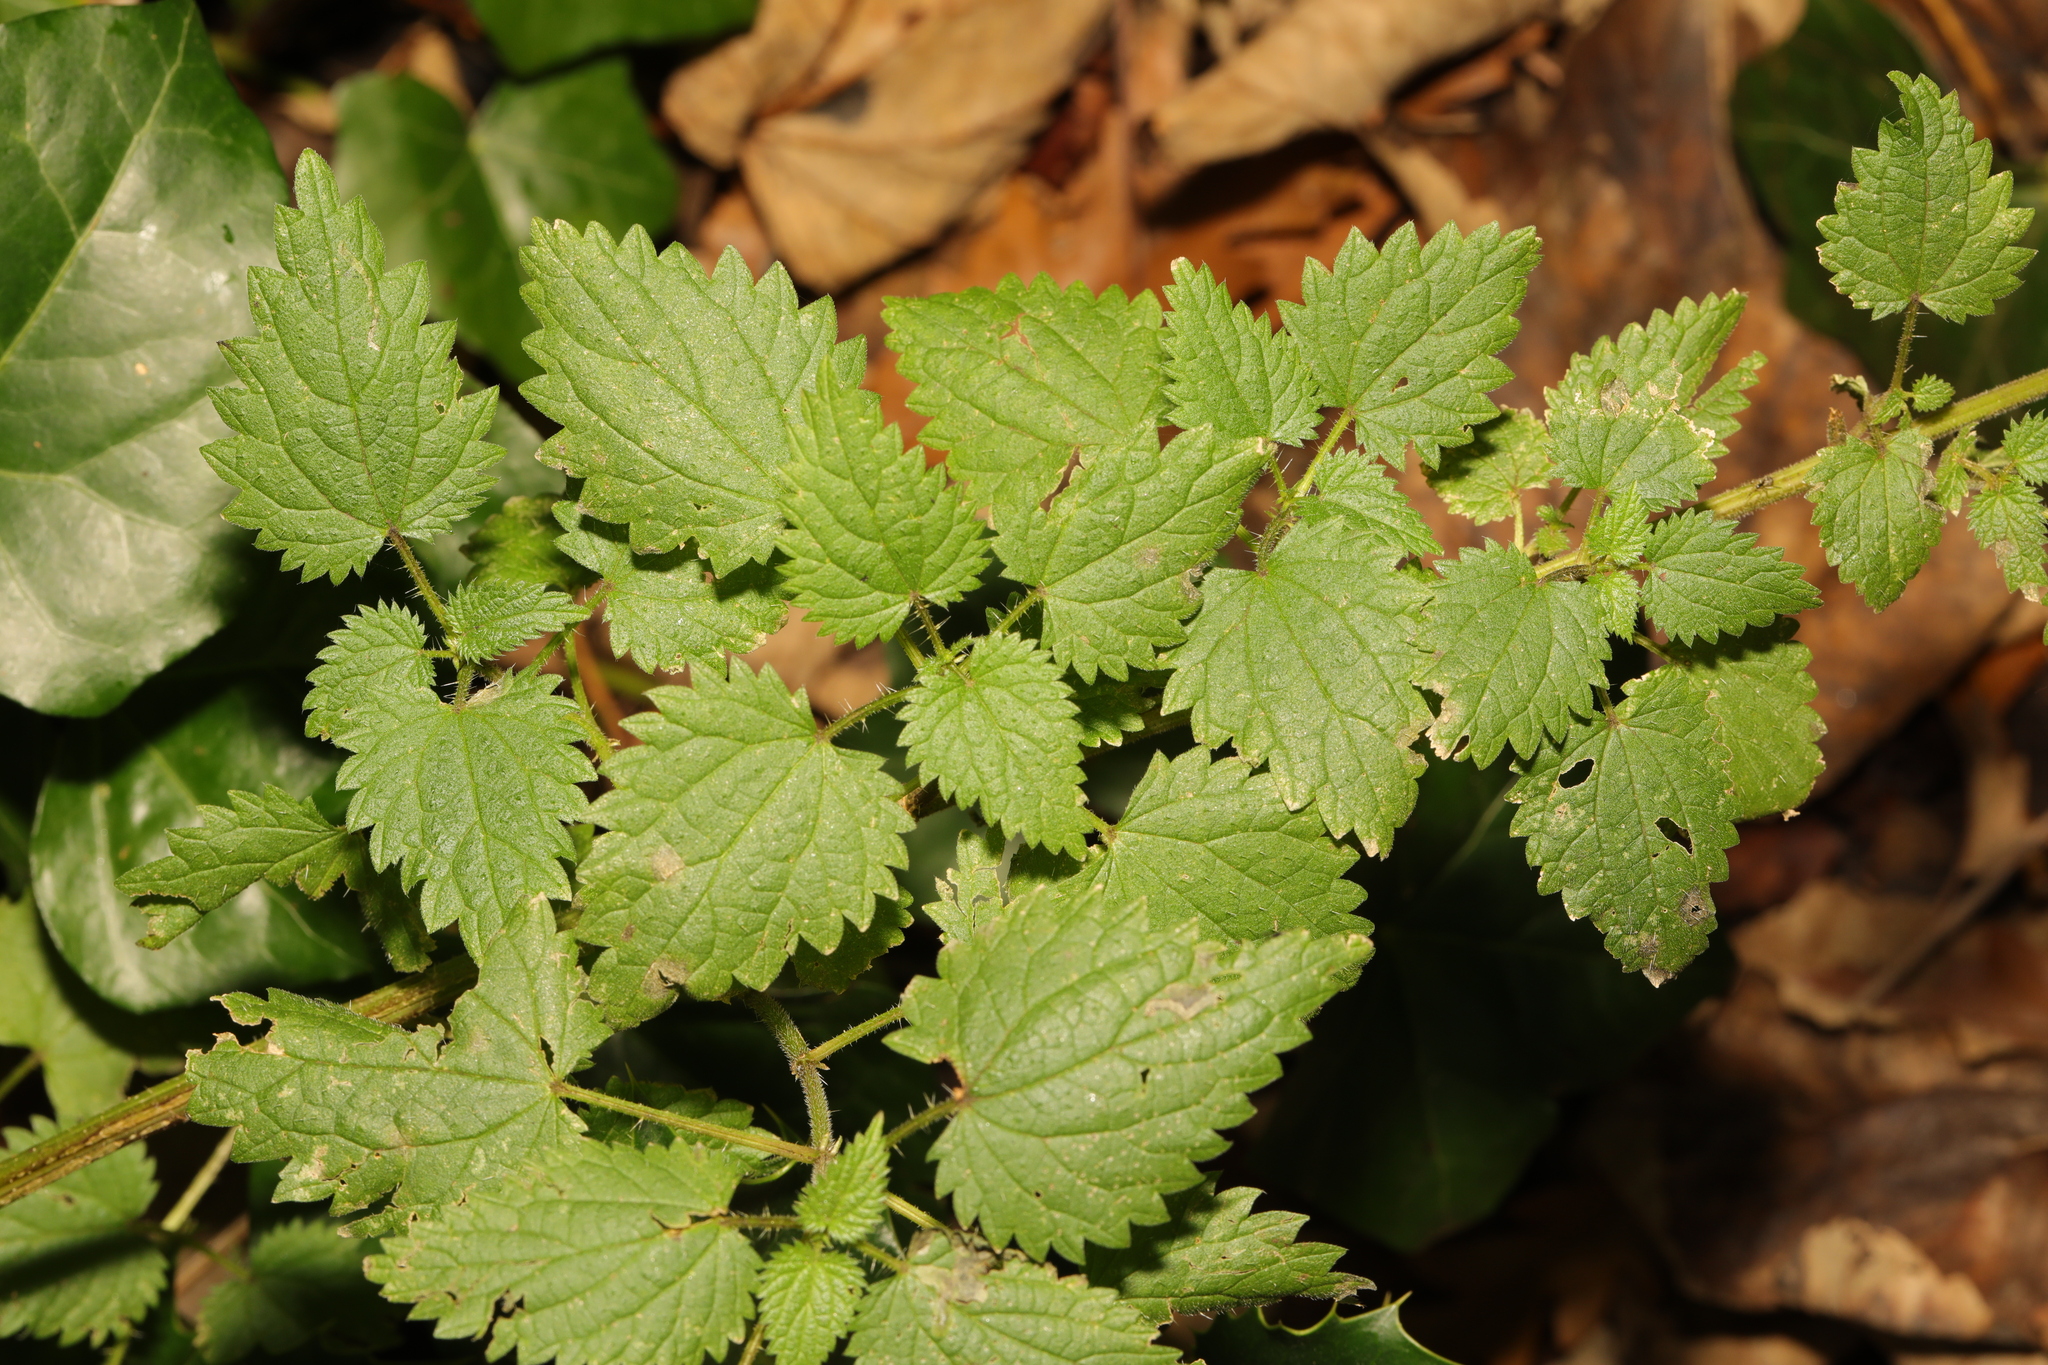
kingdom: Plantae
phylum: Tracheophyta
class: Magnoliopsida
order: Rosales
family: Urticaceae
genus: Urtica
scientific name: Urtica dioica
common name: Common nettle
